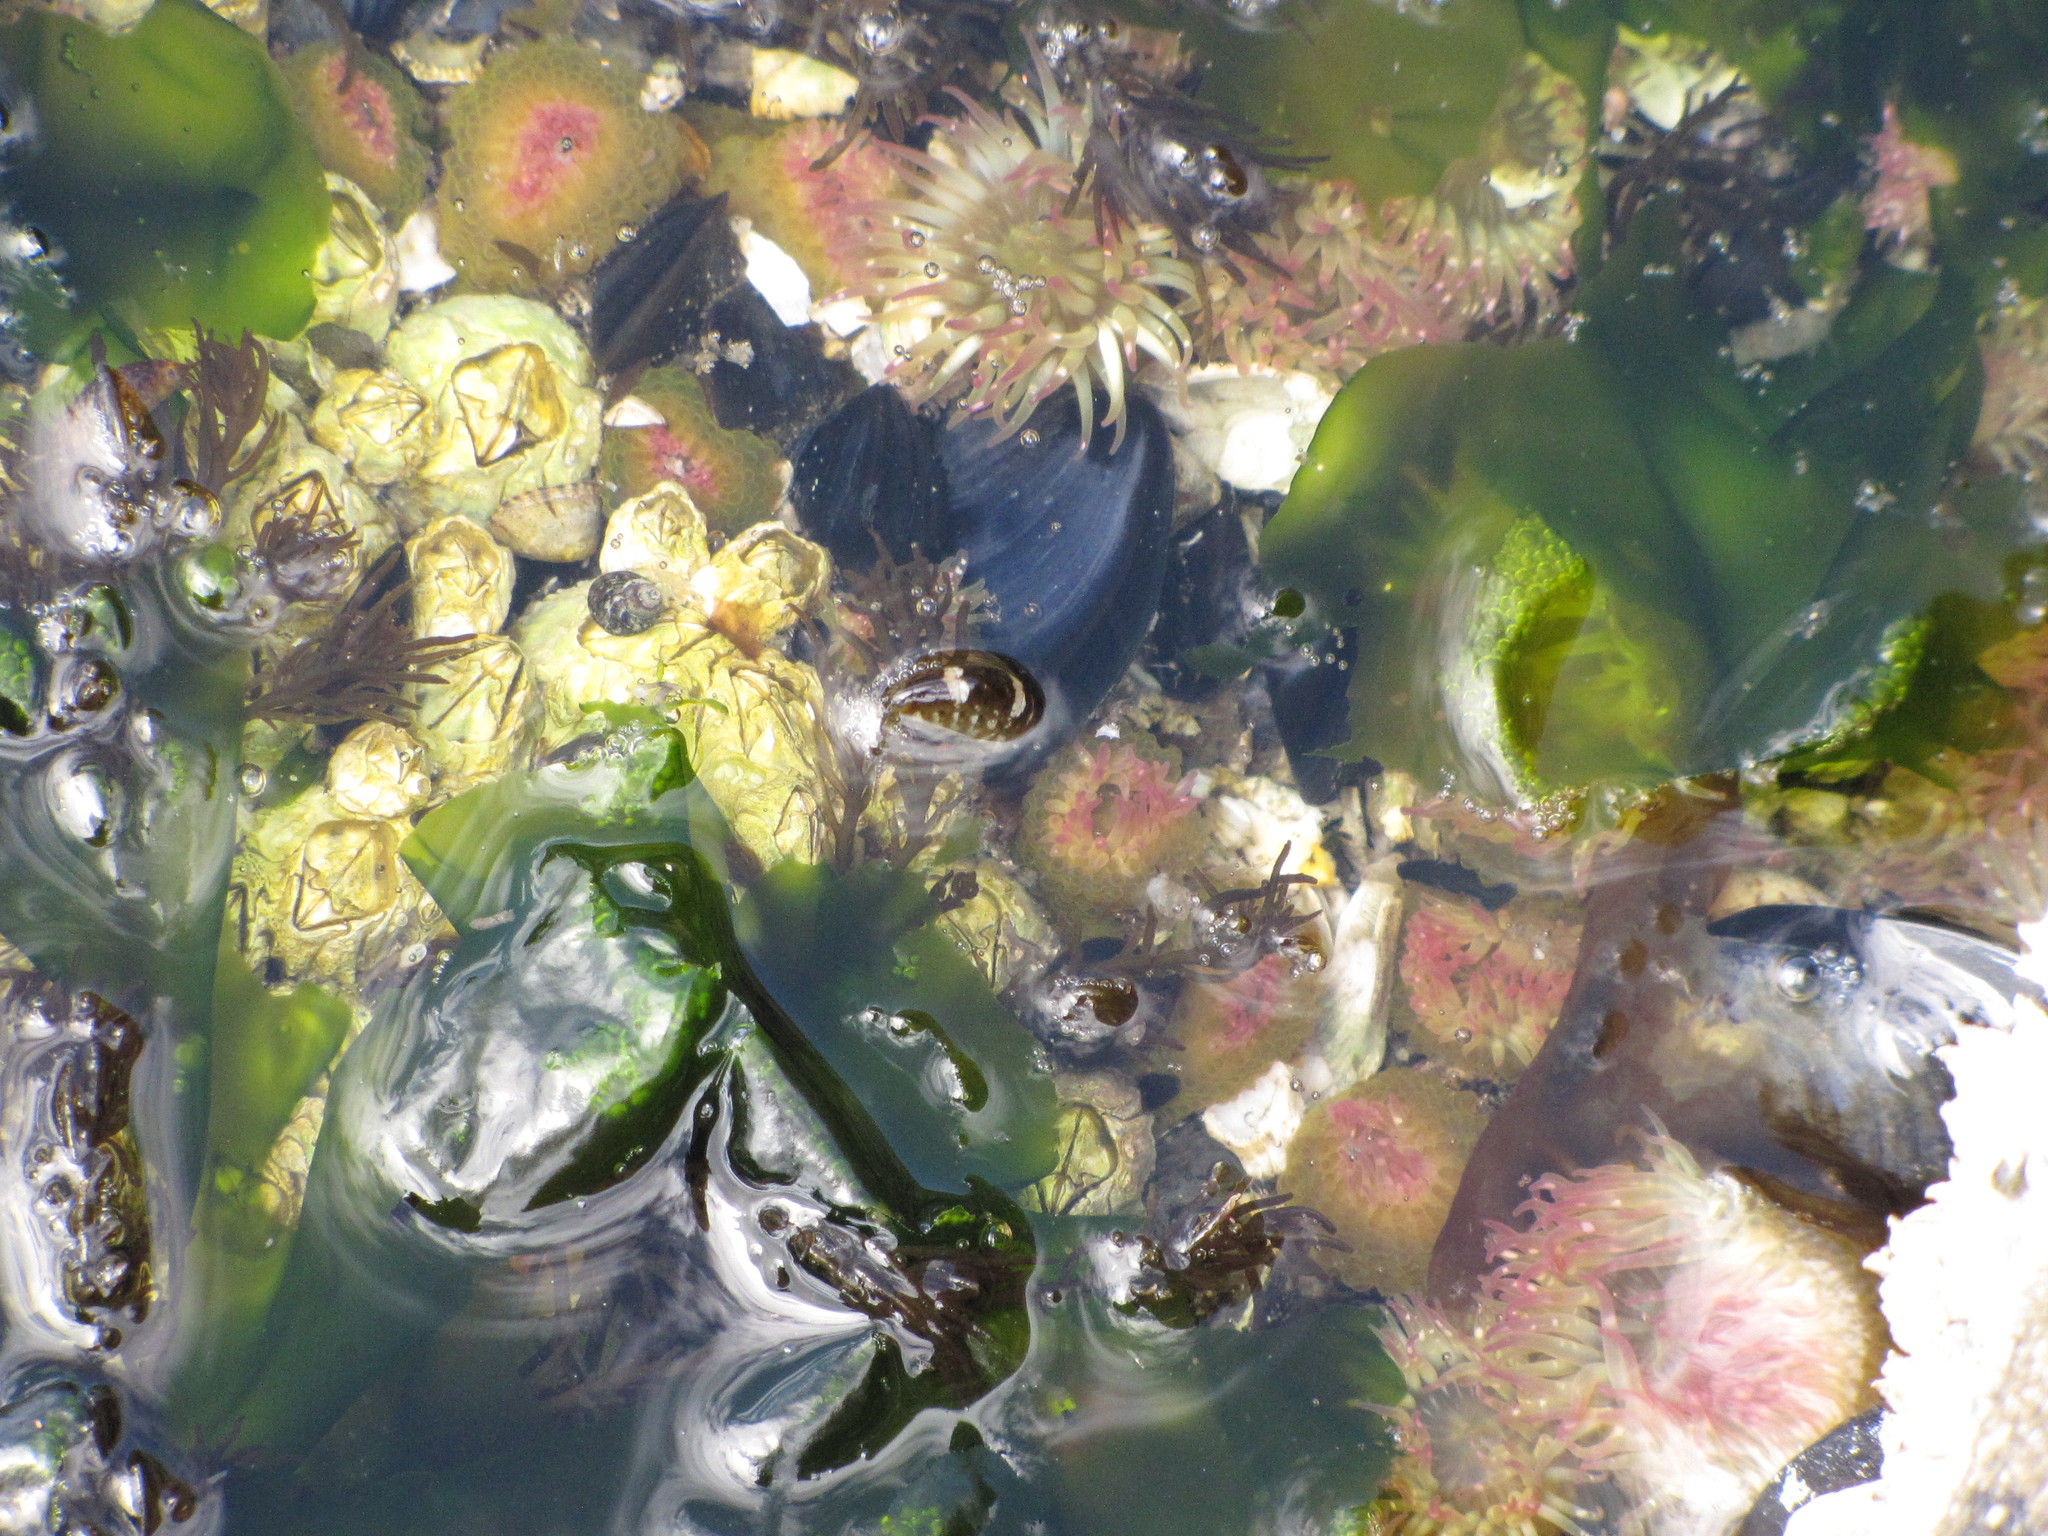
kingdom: Plantae
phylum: Chlorophyta
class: Ulvophyceae
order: Ulvales
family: Ulvaceae
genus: Ulva
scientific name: Ulva lactuca
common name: Sea lettuce
